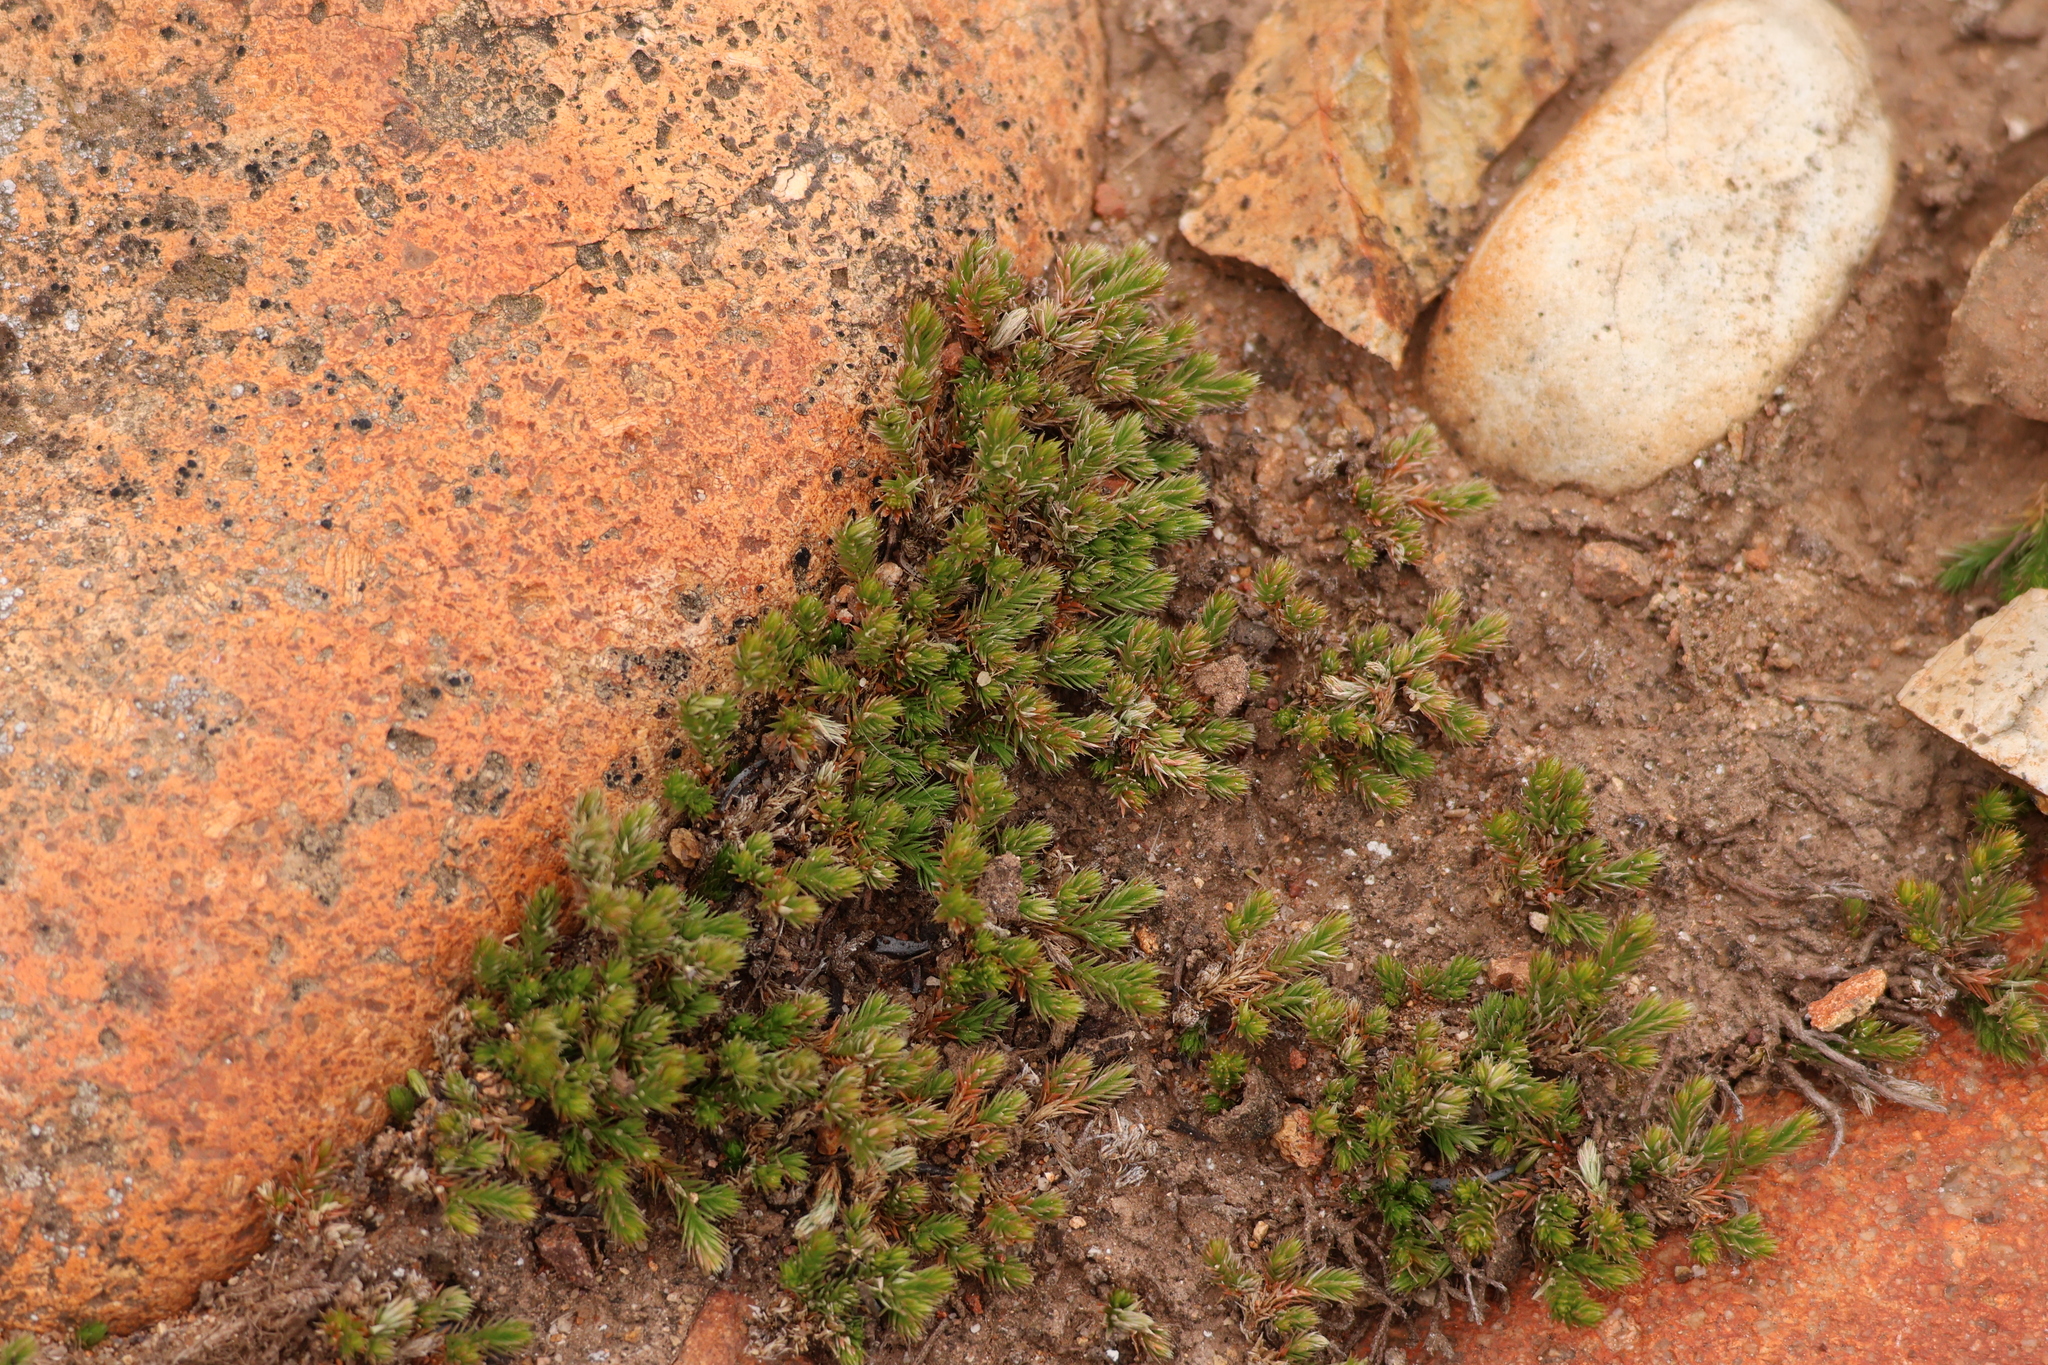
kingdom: Plantae
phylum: Tracheophyta
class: Lycopodiopsida
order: Selaginellales
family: Selaginellaceae
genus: Selaginella
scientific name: Selaginella bigelovii
